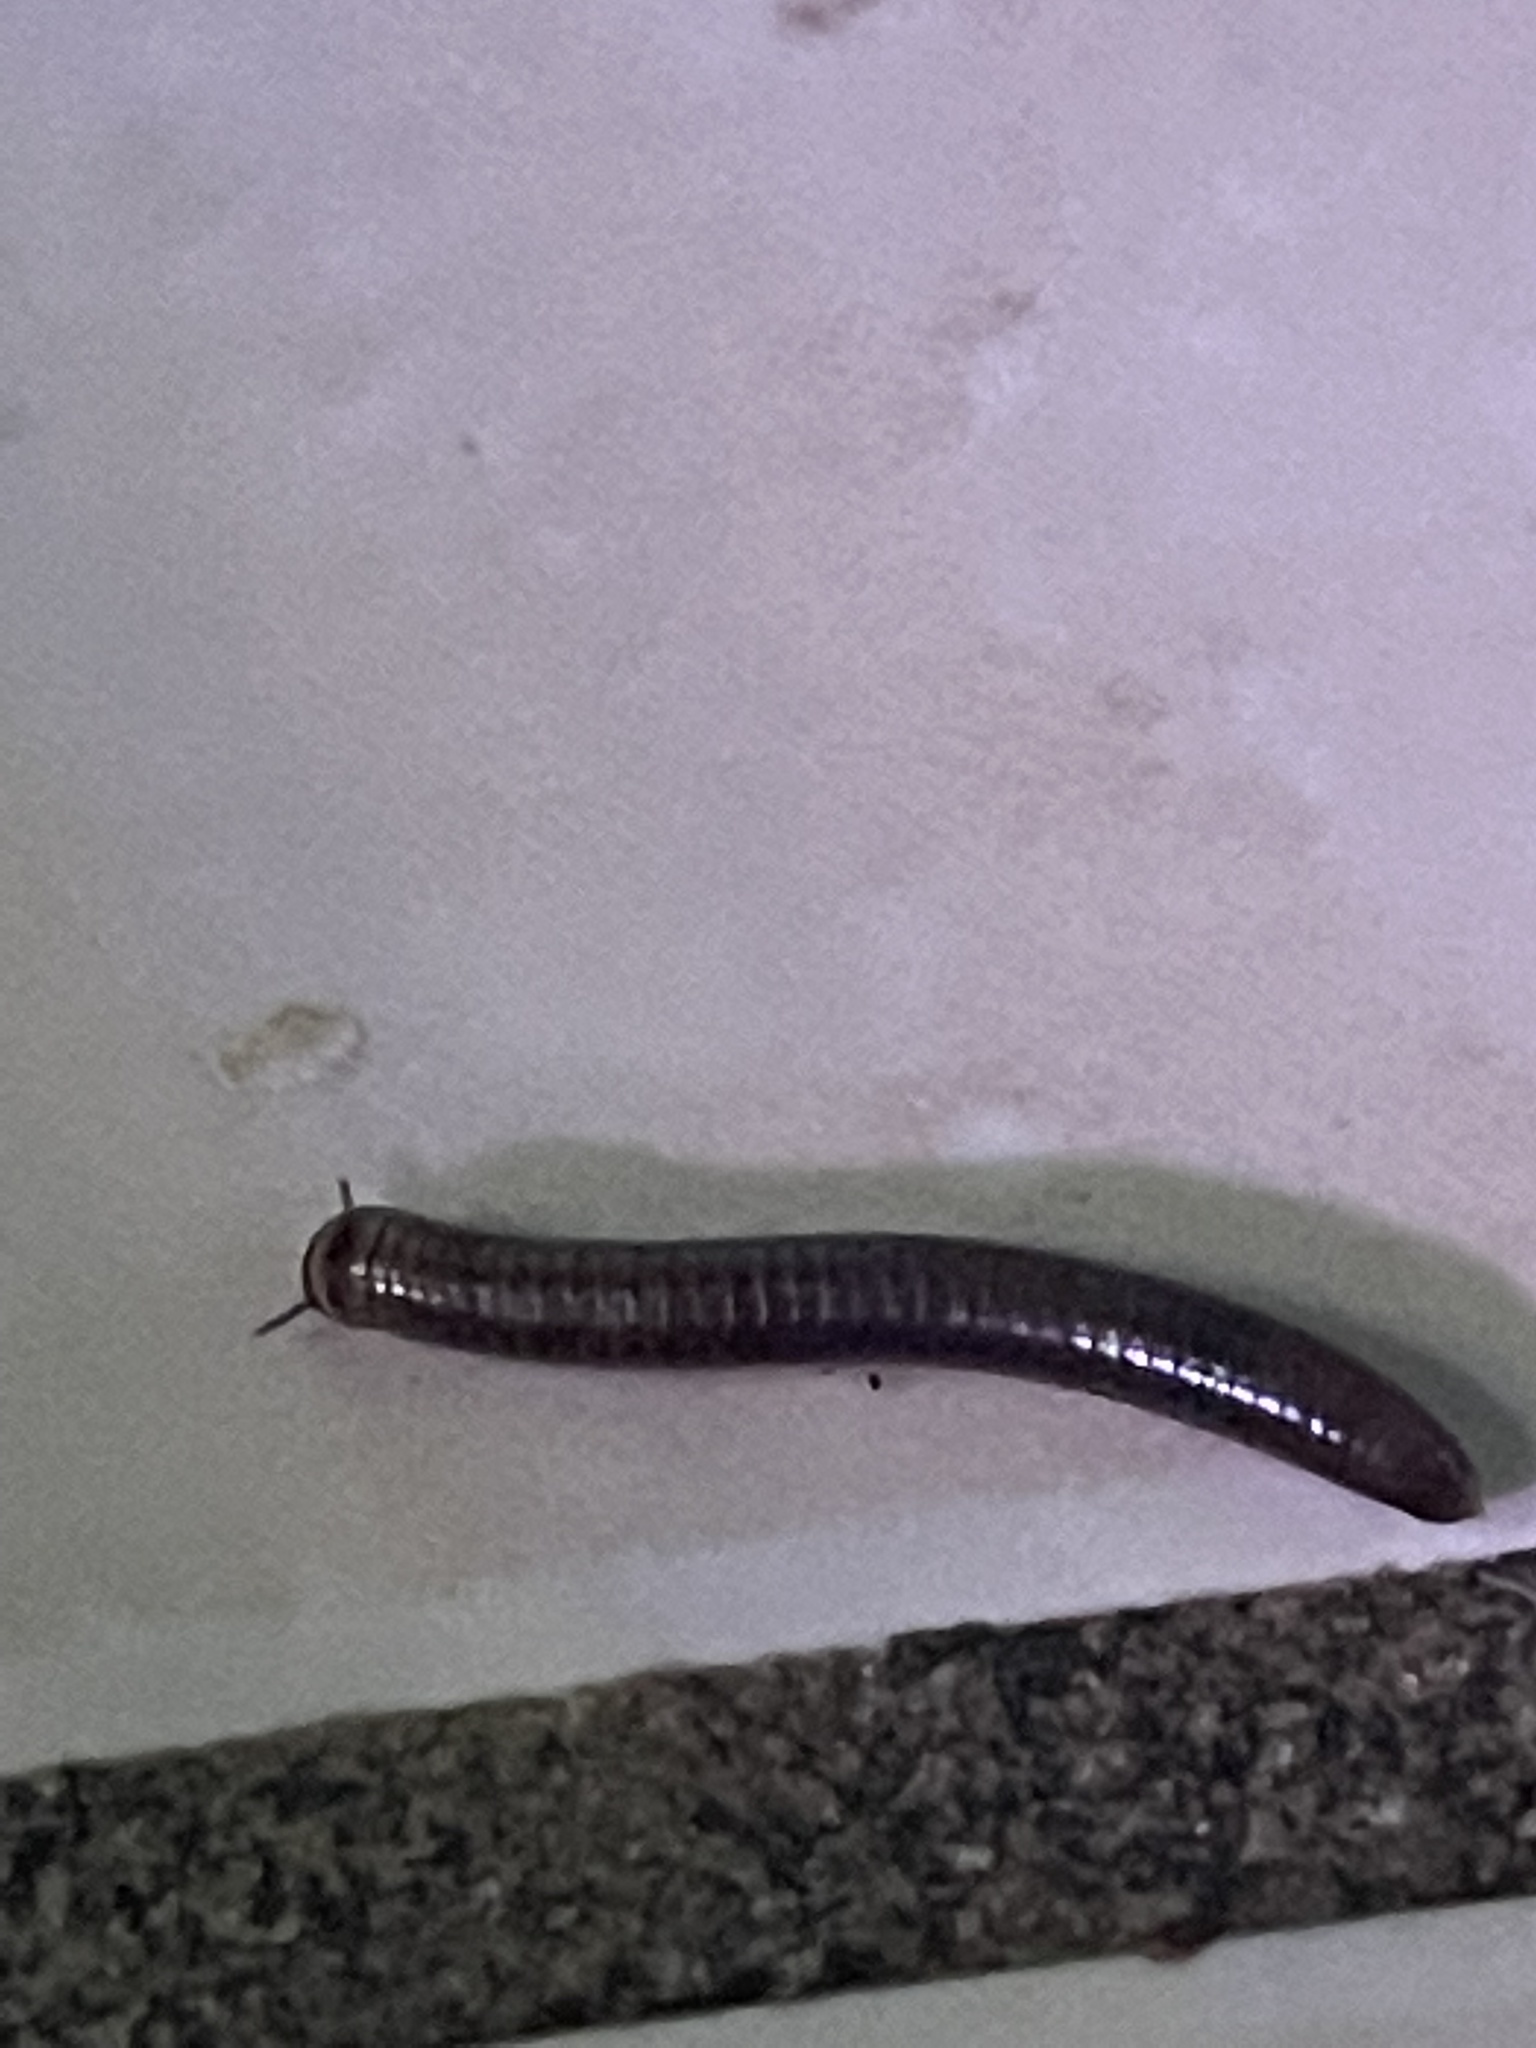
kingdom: Animalia
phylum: Arthropoda
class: Diplopoda
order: Spirobolida
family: Rhinocricidae
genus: Anadenobolus
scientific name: Anadenobolus monilicornis
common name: Caribbean millipede
